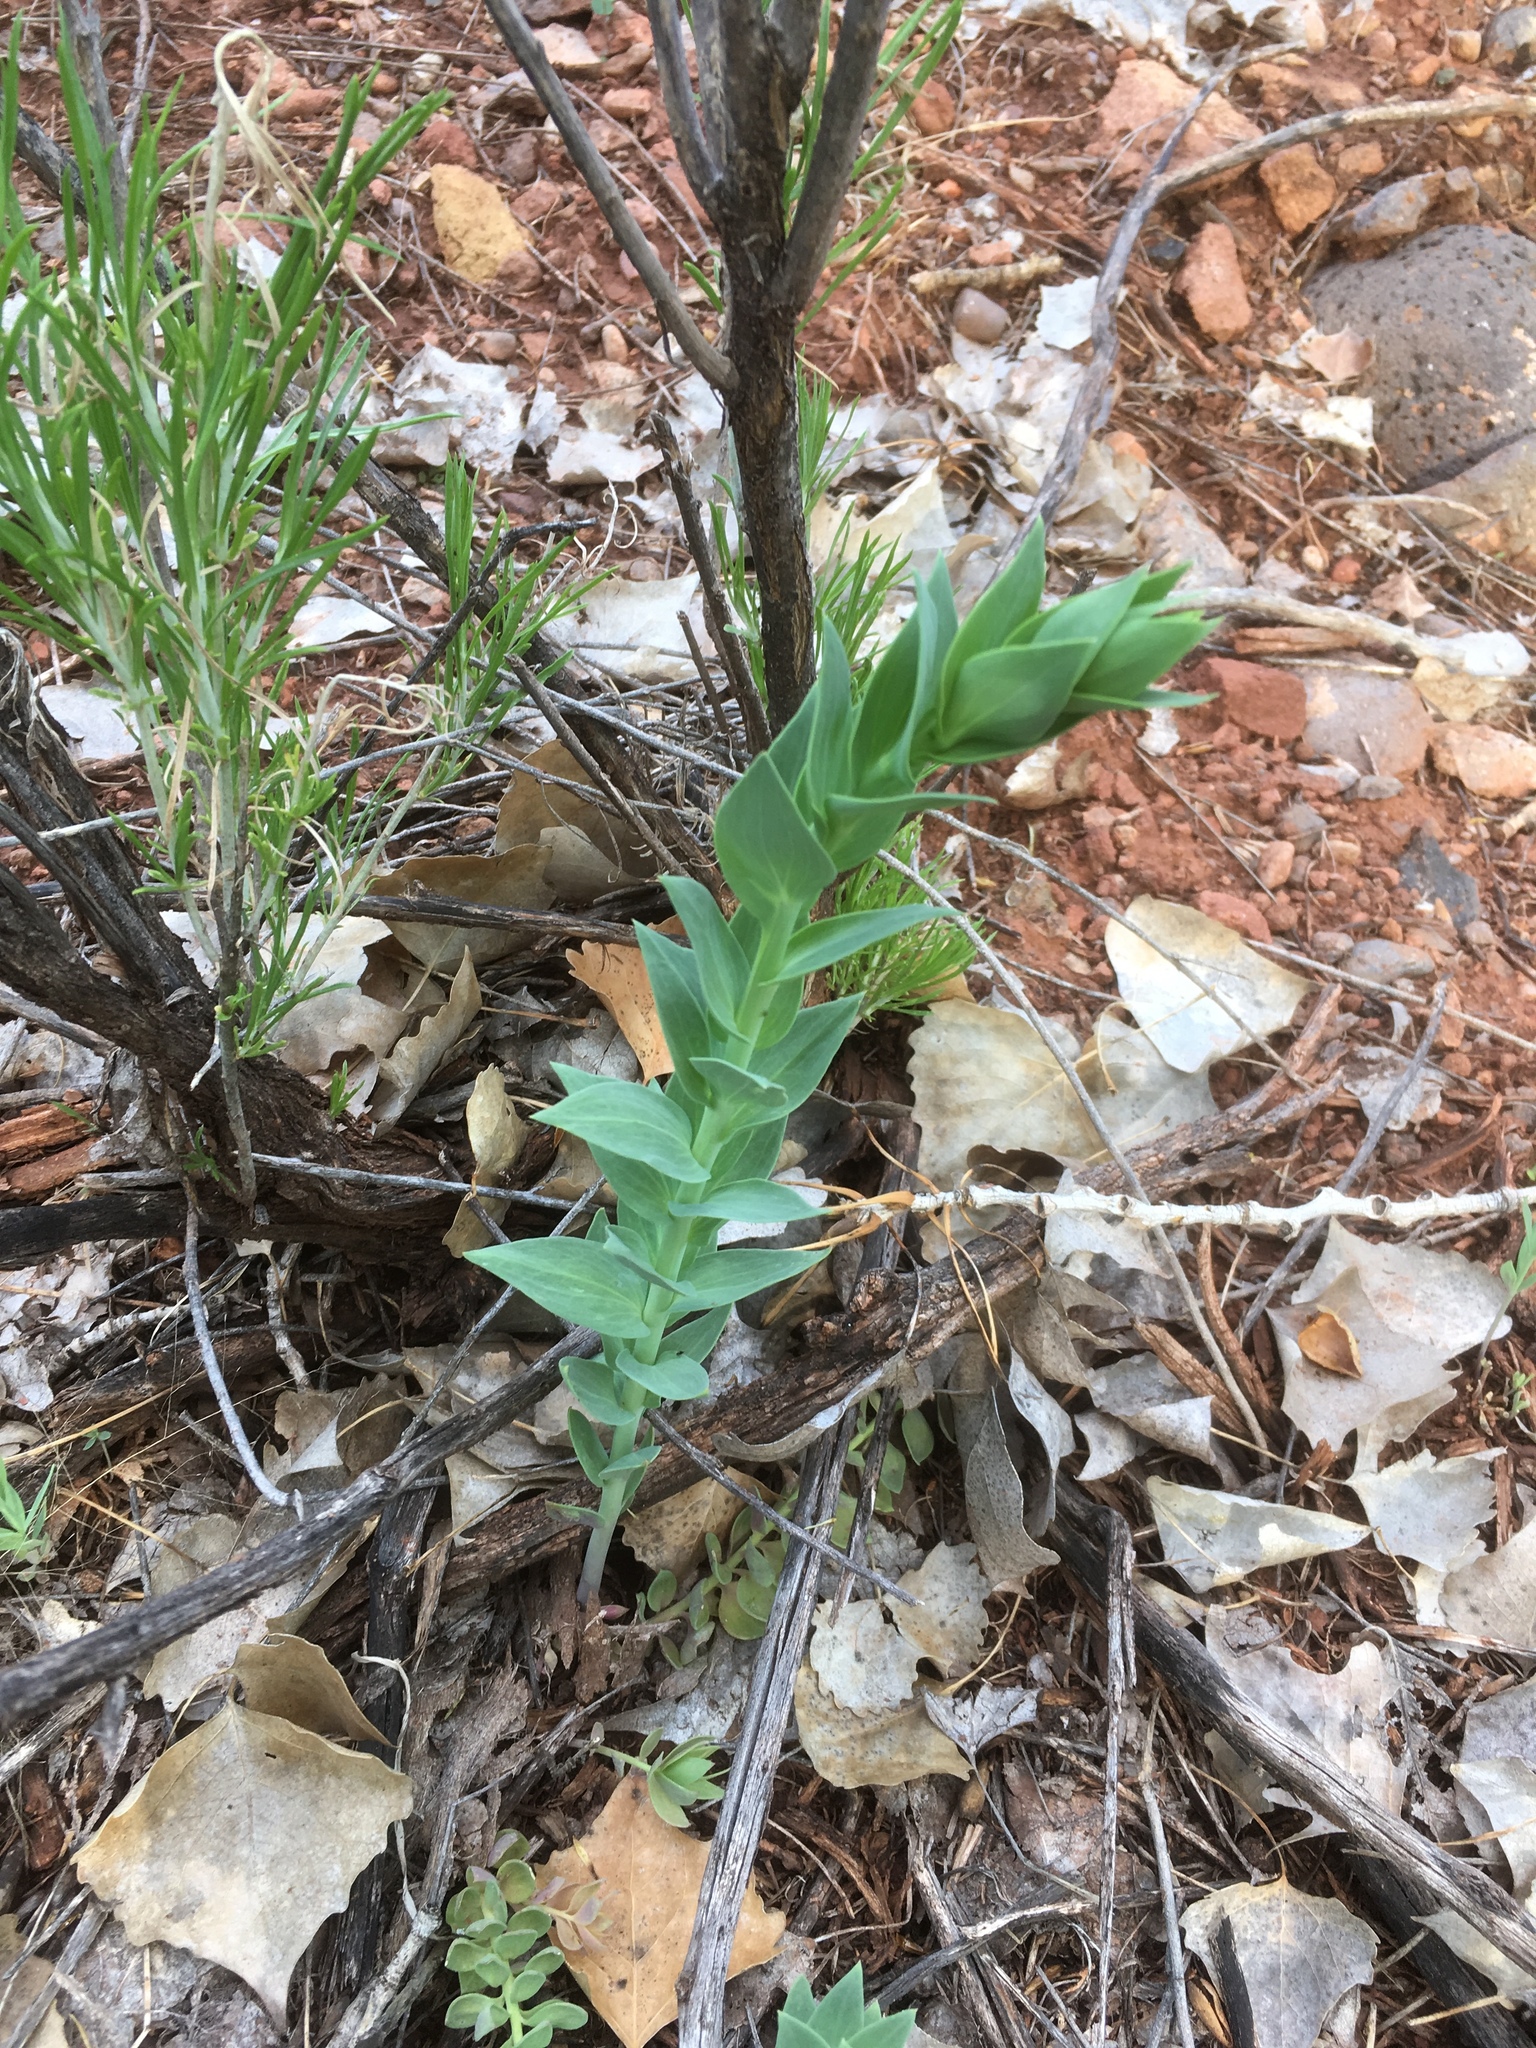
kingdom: Plantae
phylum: Tracheophyta
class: Magnoliopsida
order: Lamiales
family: Plantaginaceae
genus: Linaria
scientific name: Linaria dalmatica
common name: Dalmatian toadflax
